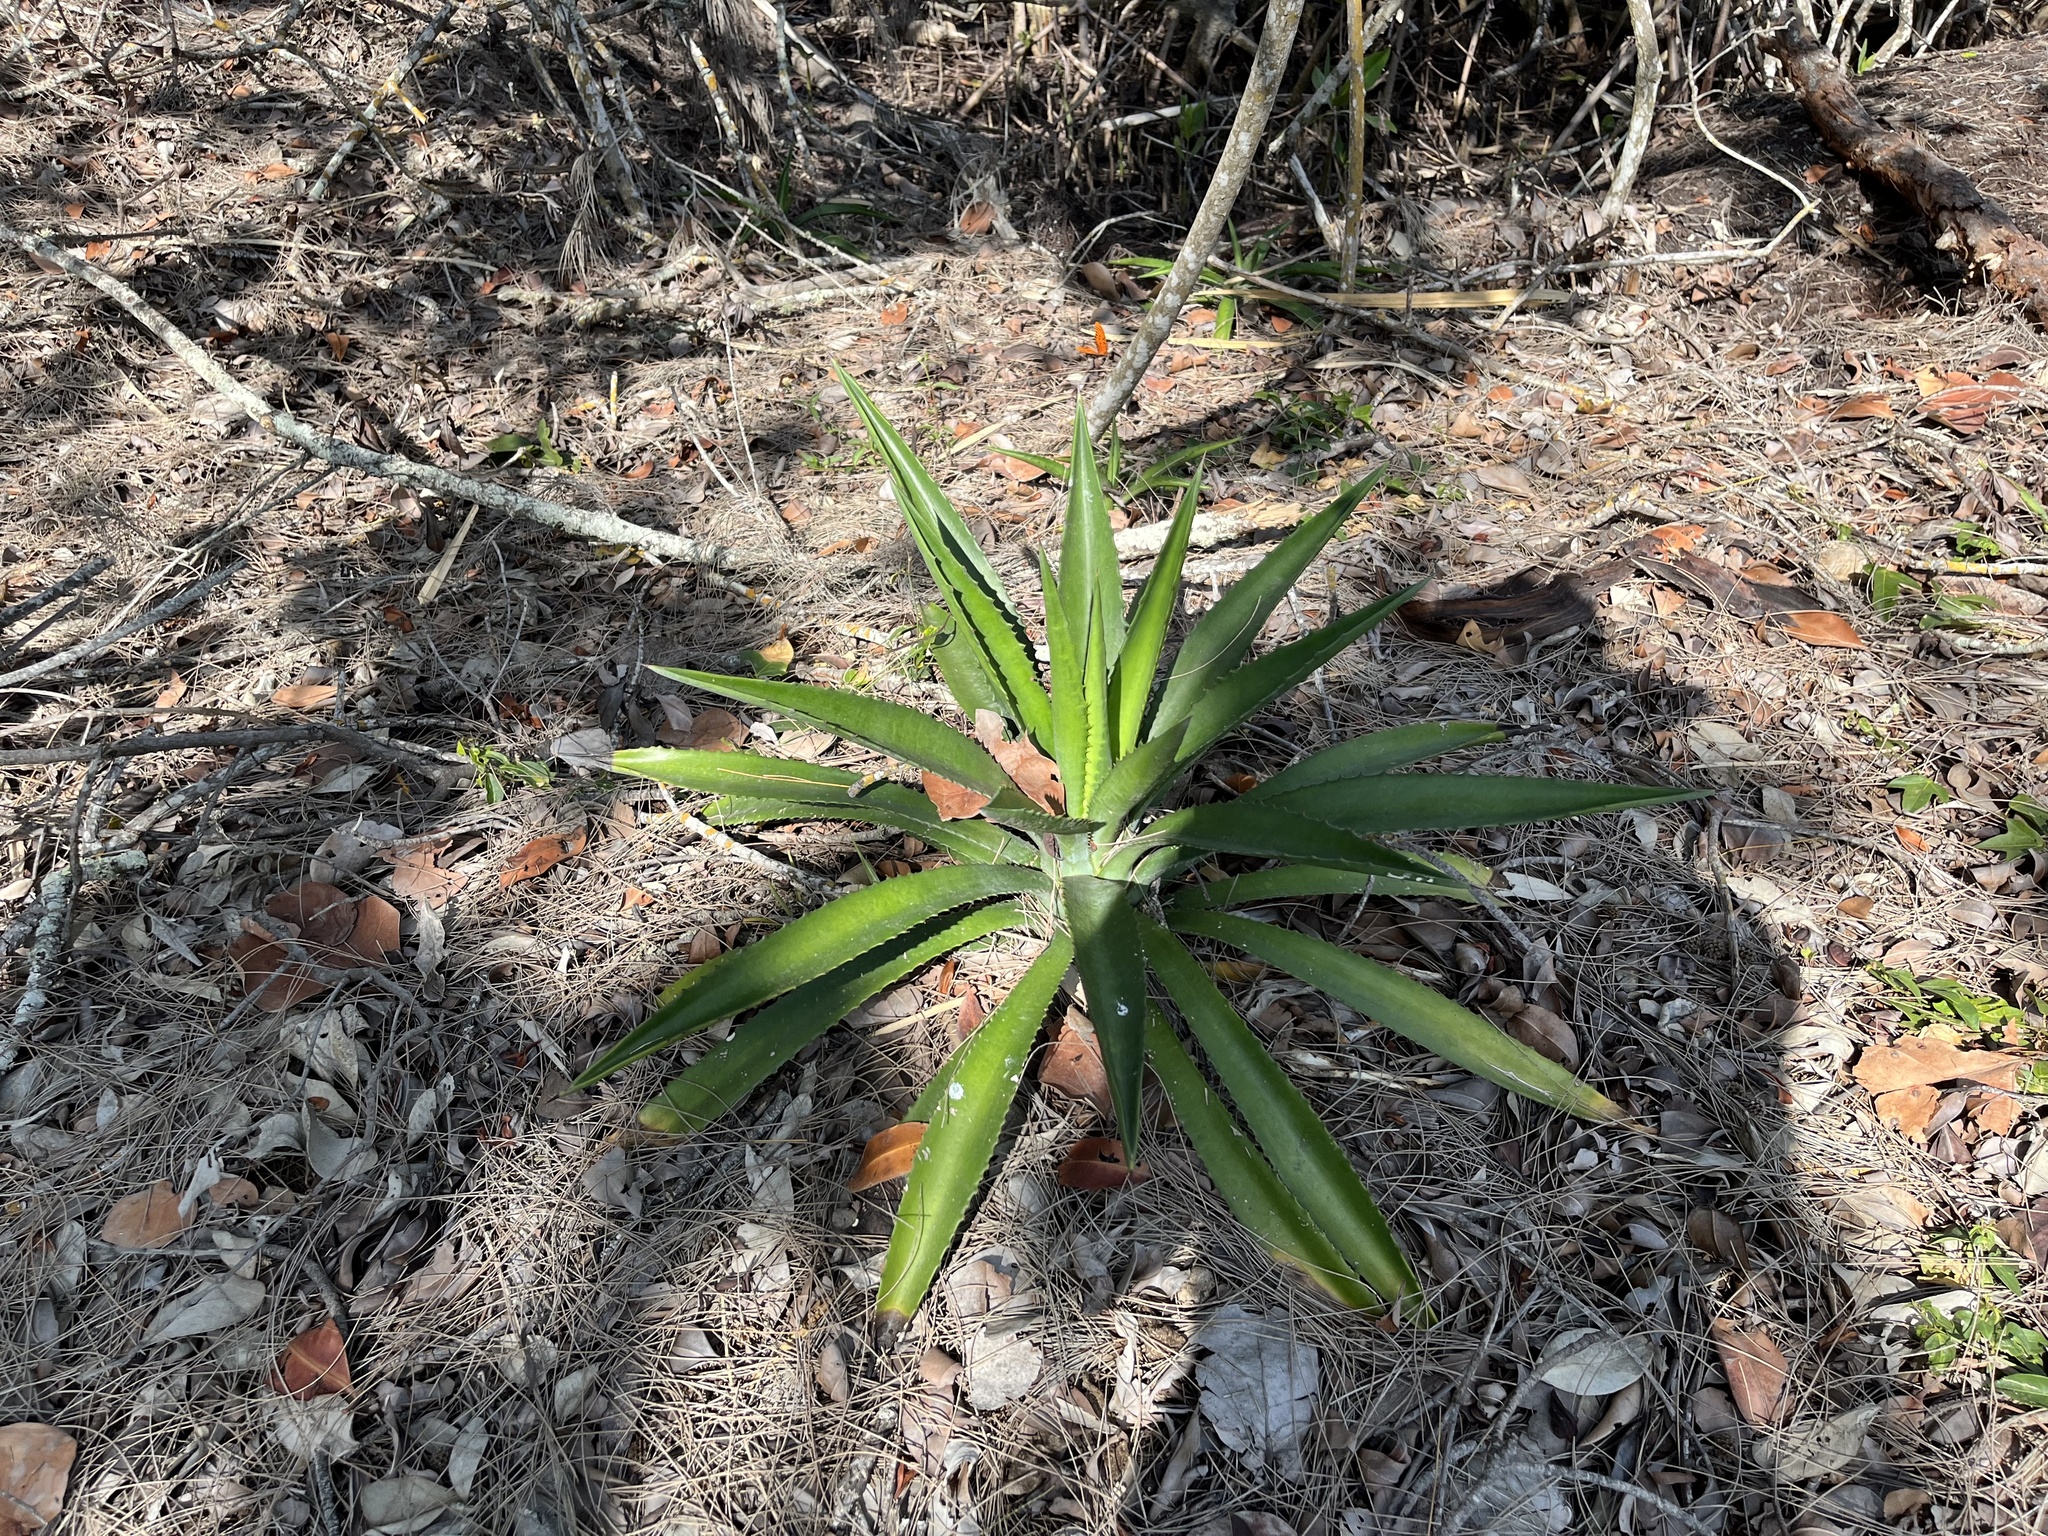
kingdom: Plantae
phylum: Tracheophyta
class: Liliopsida
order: Asparagales
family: Asparagaceae
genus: Agave
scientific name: Agave decipiens
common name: False sisal
